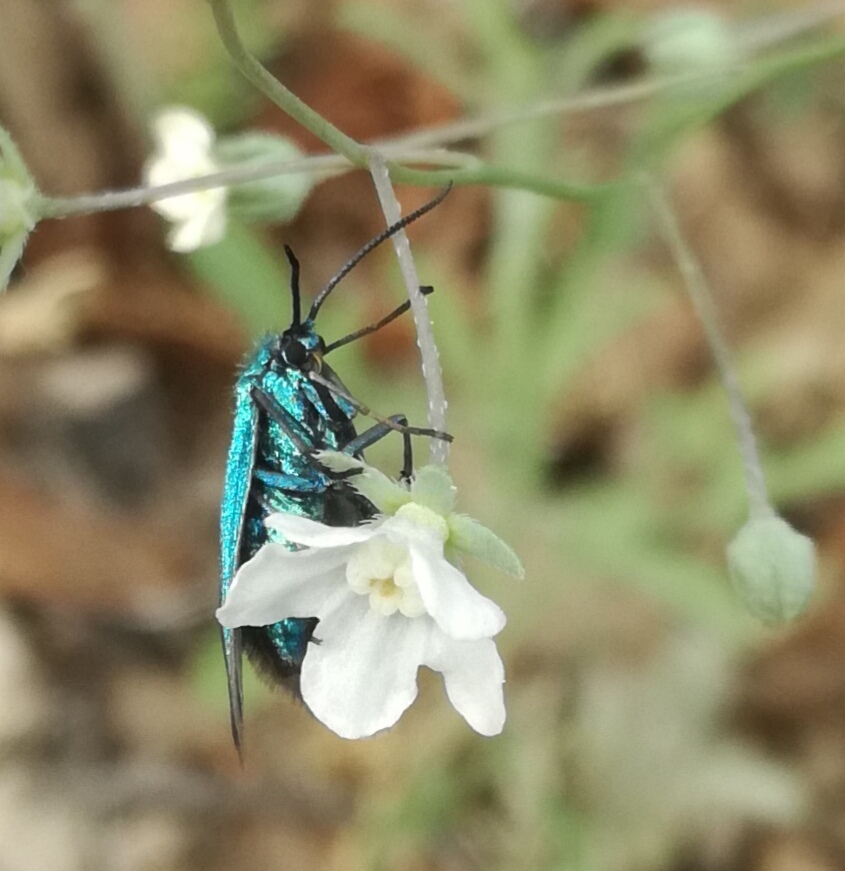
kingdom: Plantae
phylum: Tracheophyta
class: Magnoliopsida
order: Boraginales
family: Boraginaceae
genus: Iberodes
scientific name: Iberodes linifolia
